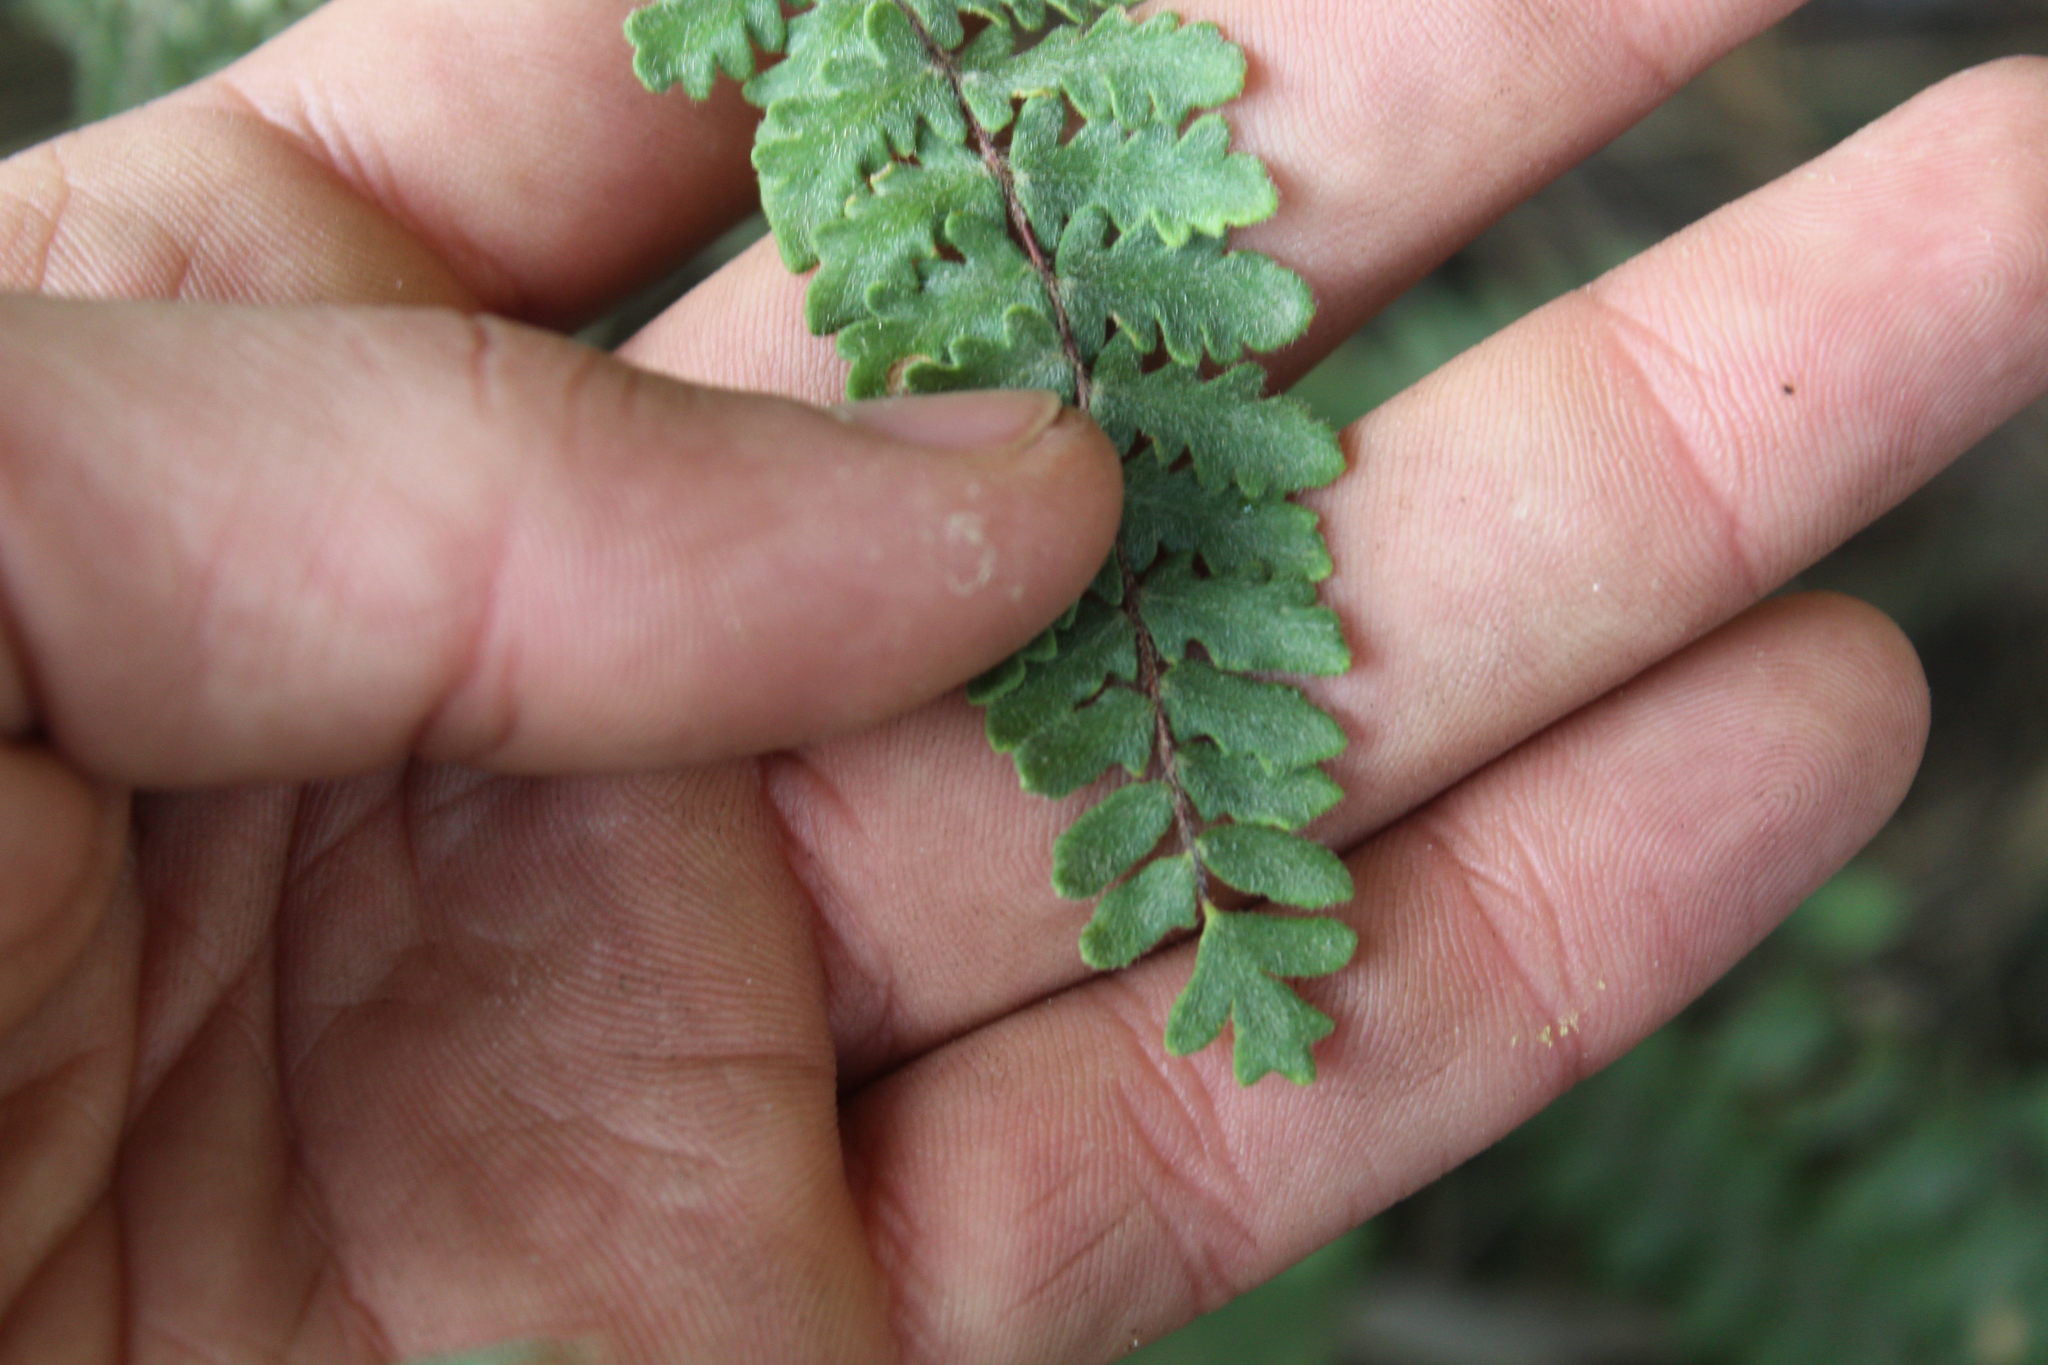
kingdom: Plantae
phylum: Tracheophyta
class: Polypodiopsida
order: Polypodiales
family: Pteridaceae
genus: Myriopteris
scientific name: Myriopteris aurea
